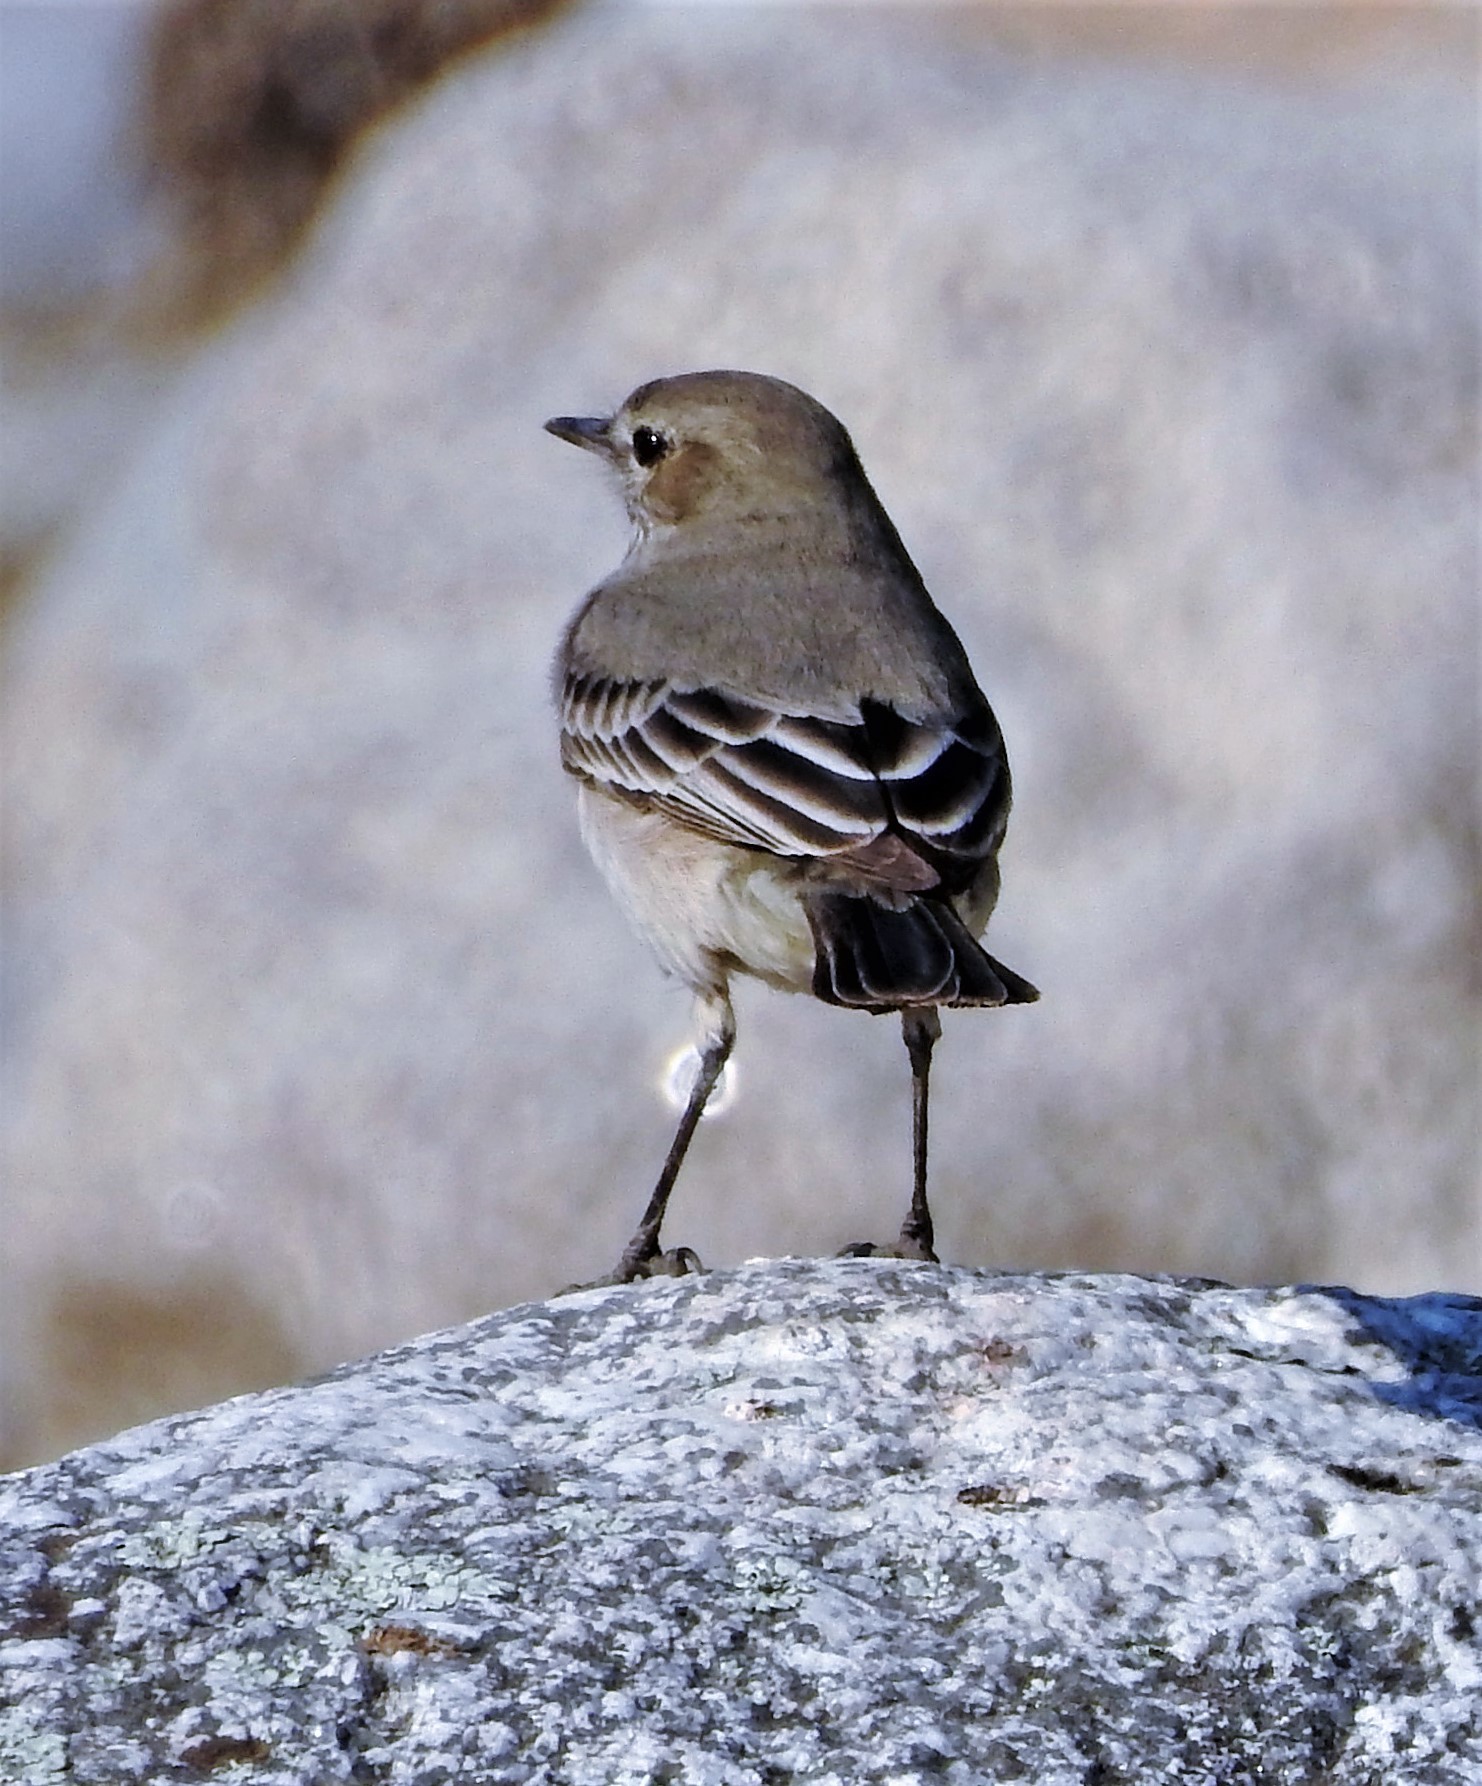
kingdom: Animalia
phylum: Chordata
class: Aves
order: Passeriformes
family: Tyrannidae
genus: Agriornis
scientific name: Agriornis murinus
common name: Lesser shrike-tyrant
